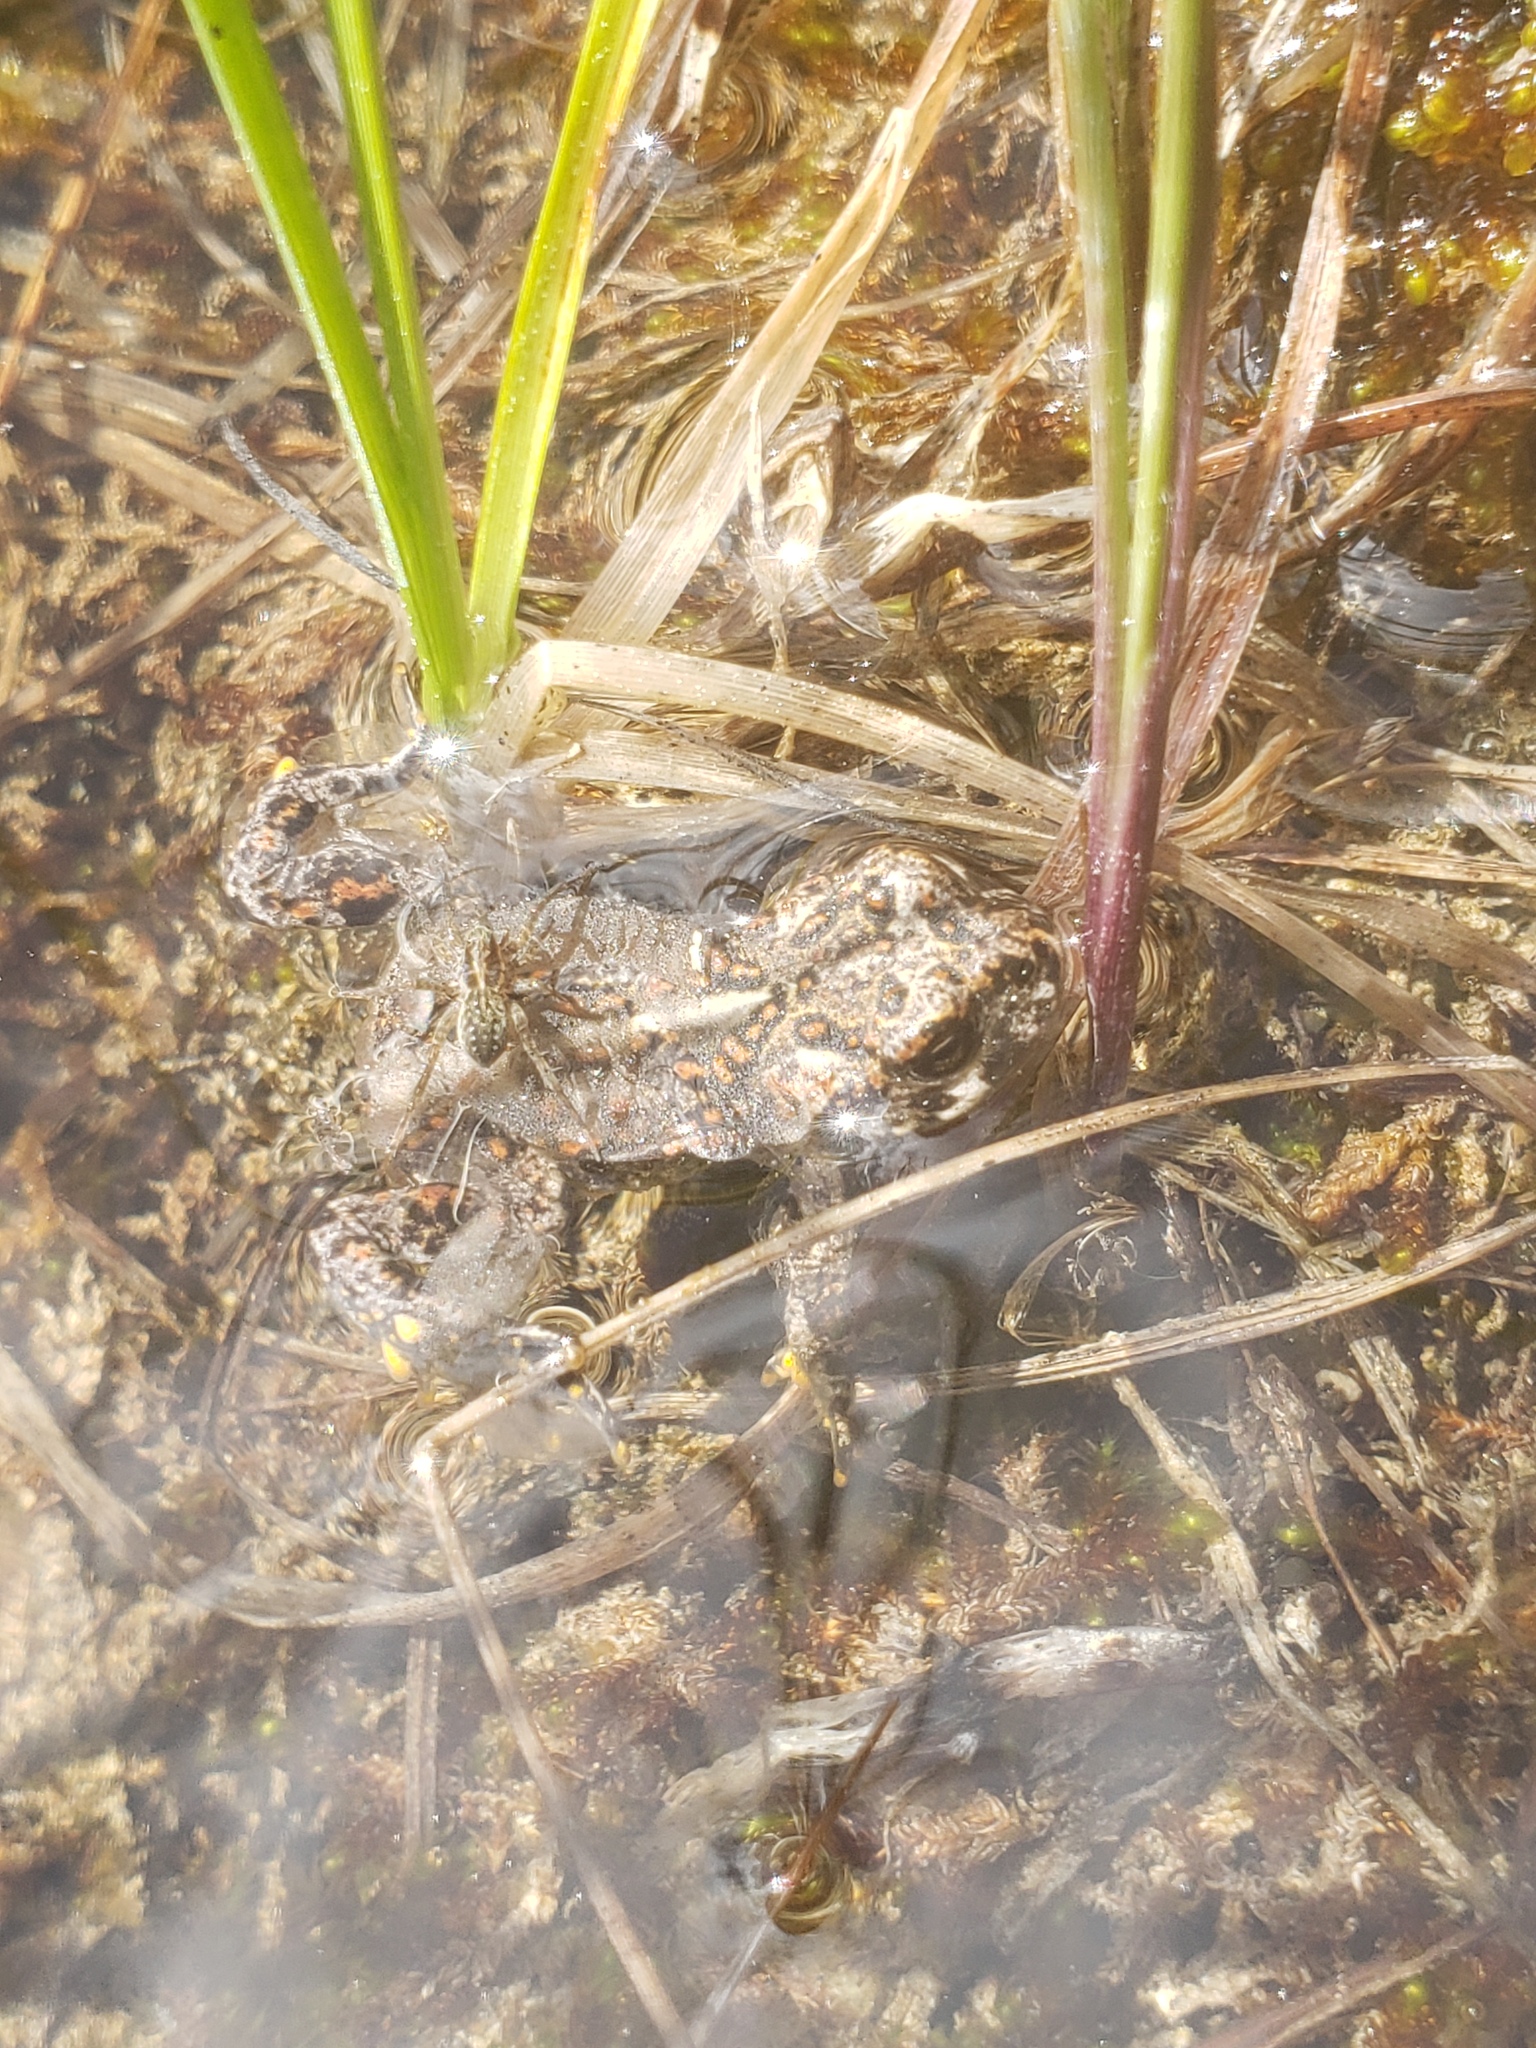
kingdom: Animalia
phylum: Chordata
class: Amphibia
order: Anura
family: Bufonidae
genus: Anaxyrus
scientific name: Anaxyrus boreas
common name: Western toad
